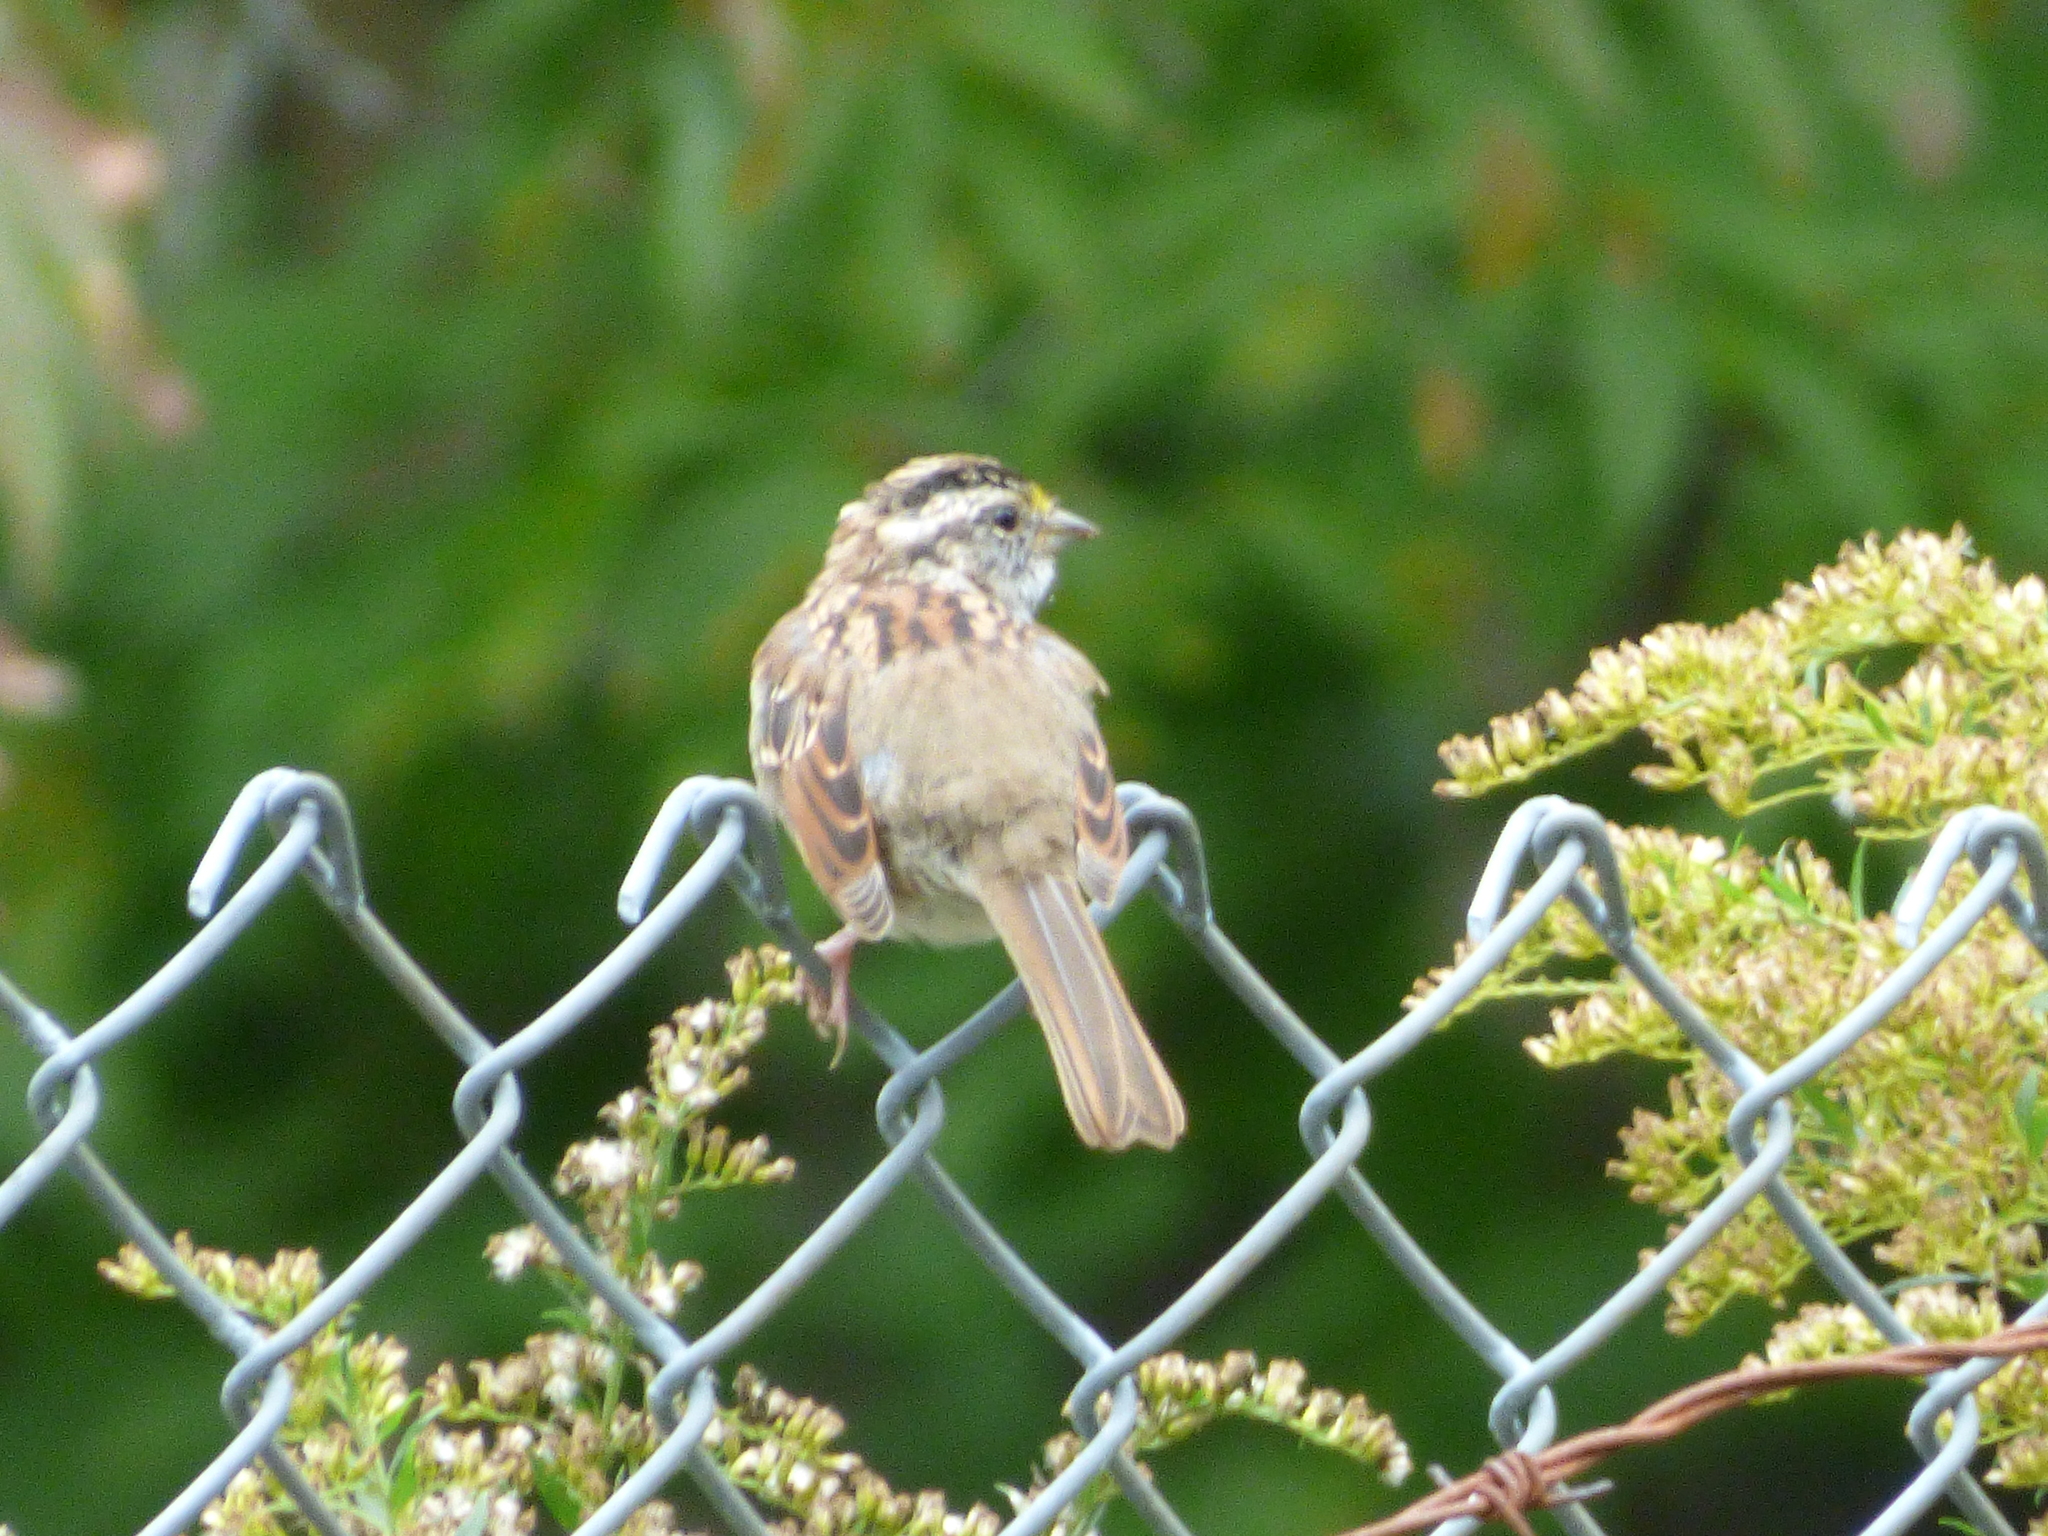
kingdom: Animalia
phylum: Chordata
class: Aves
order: Passeriformes
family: Passerellidae
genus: Zonotrichia
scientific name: Zonotrichia albicollis
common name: White-throated sparrow
